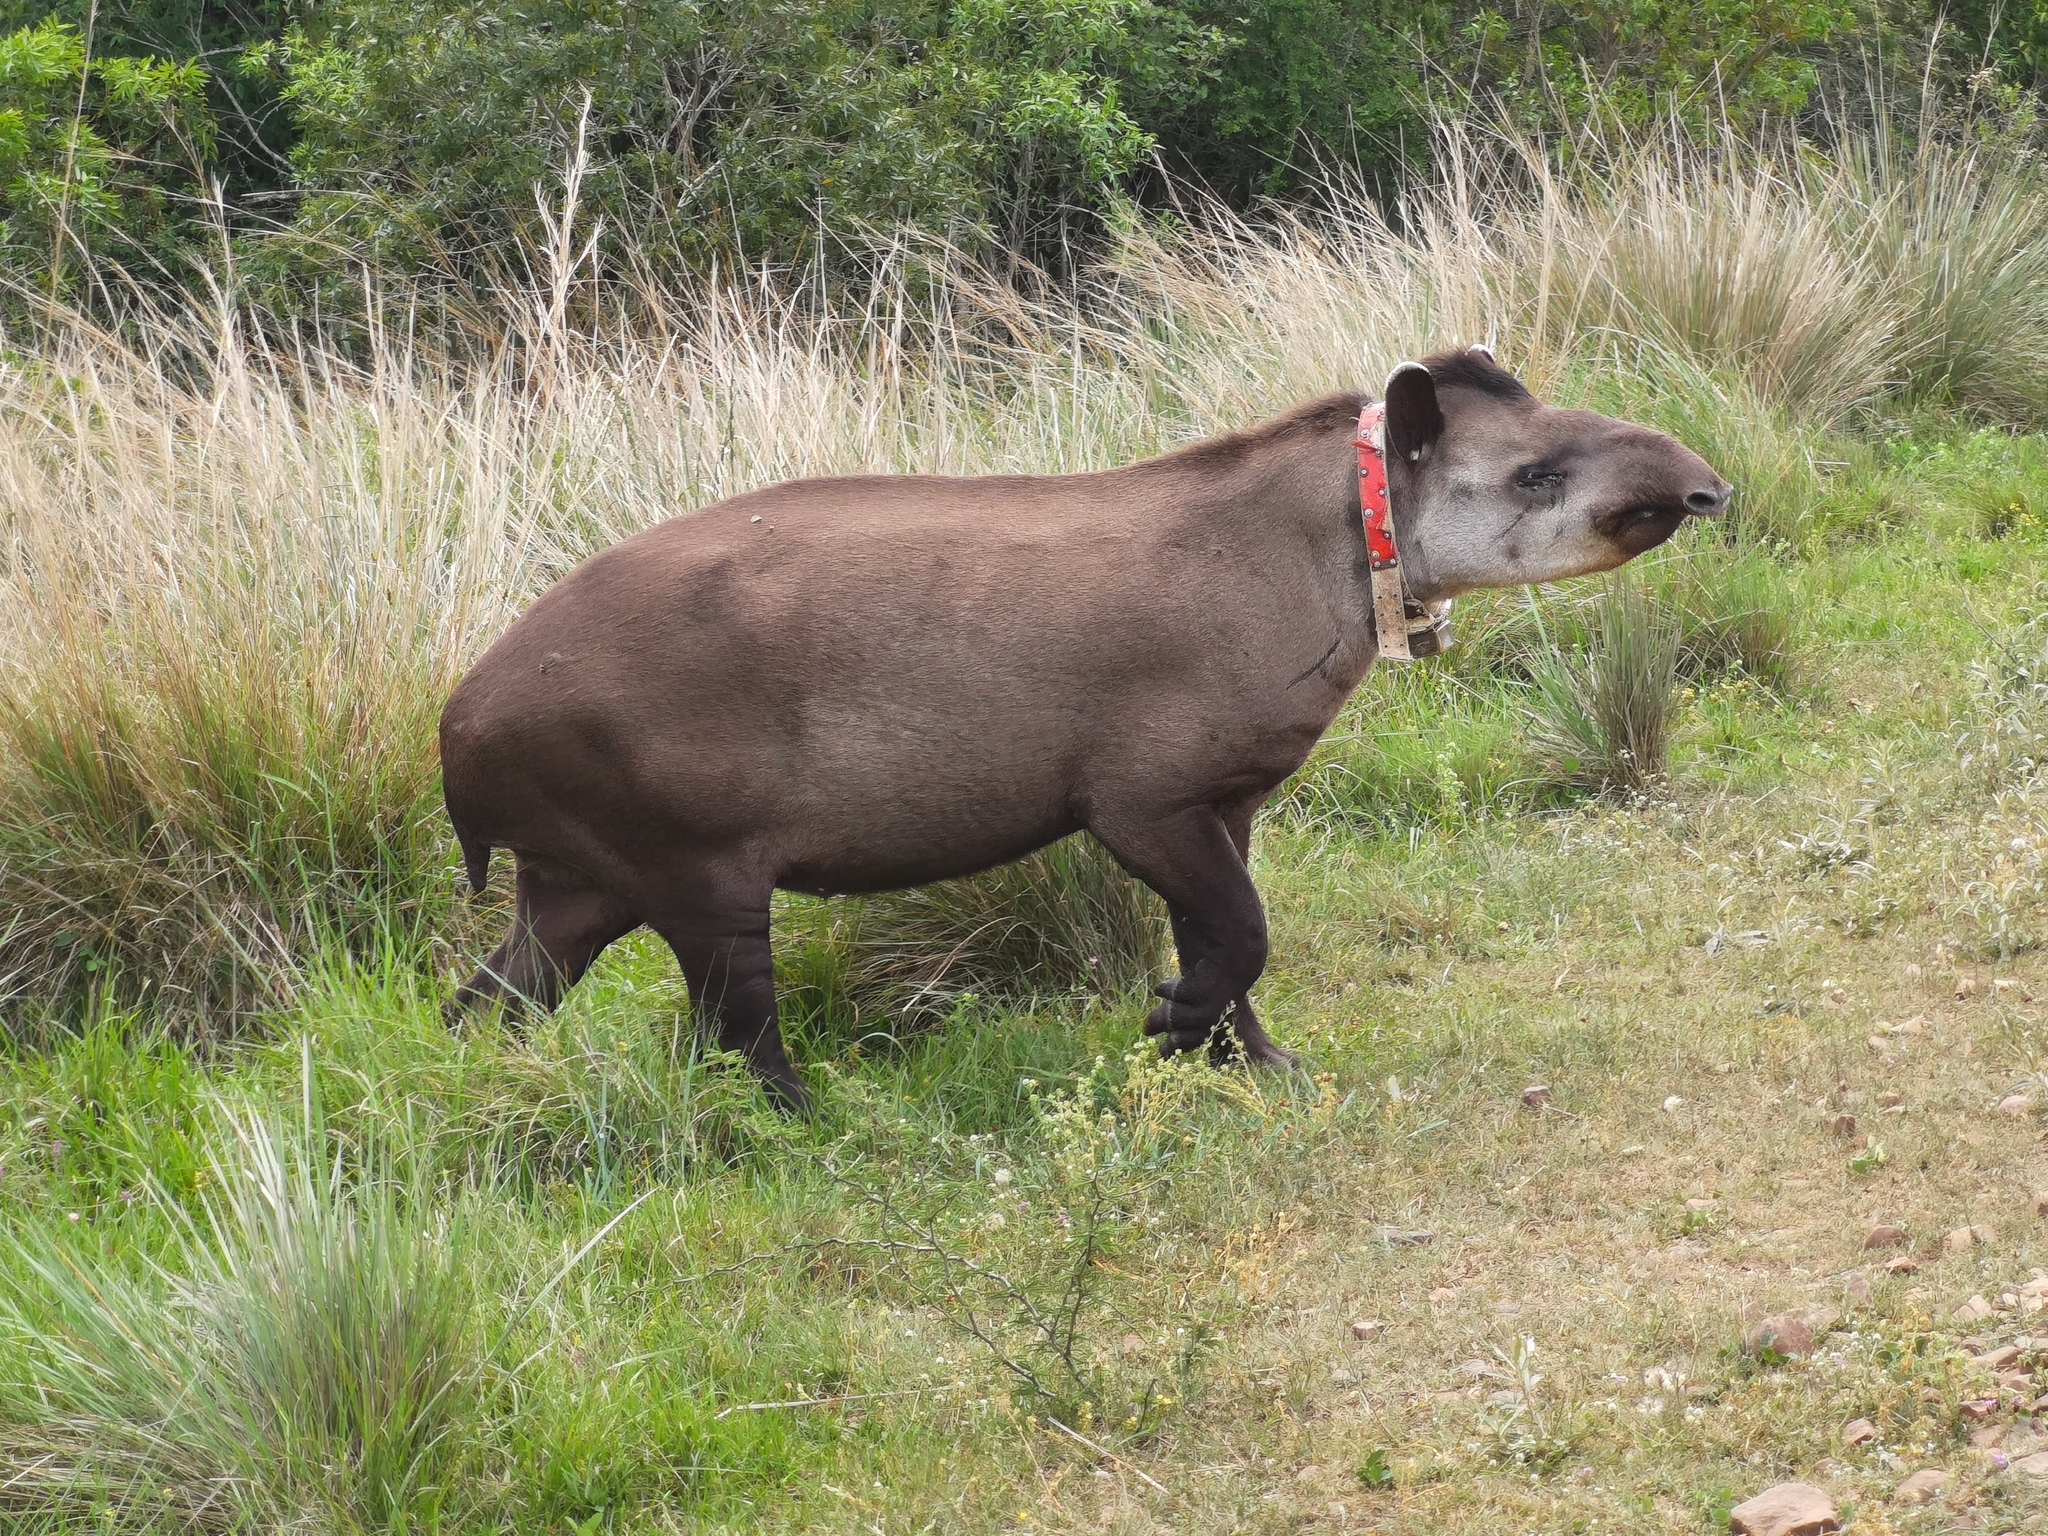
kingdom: Animalia
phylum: Chordata
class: Mammalia
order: Perissodactyla
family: Tapiridae
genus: Tapirus
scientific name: Tapirus terrestris
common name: Brazilian tapir
